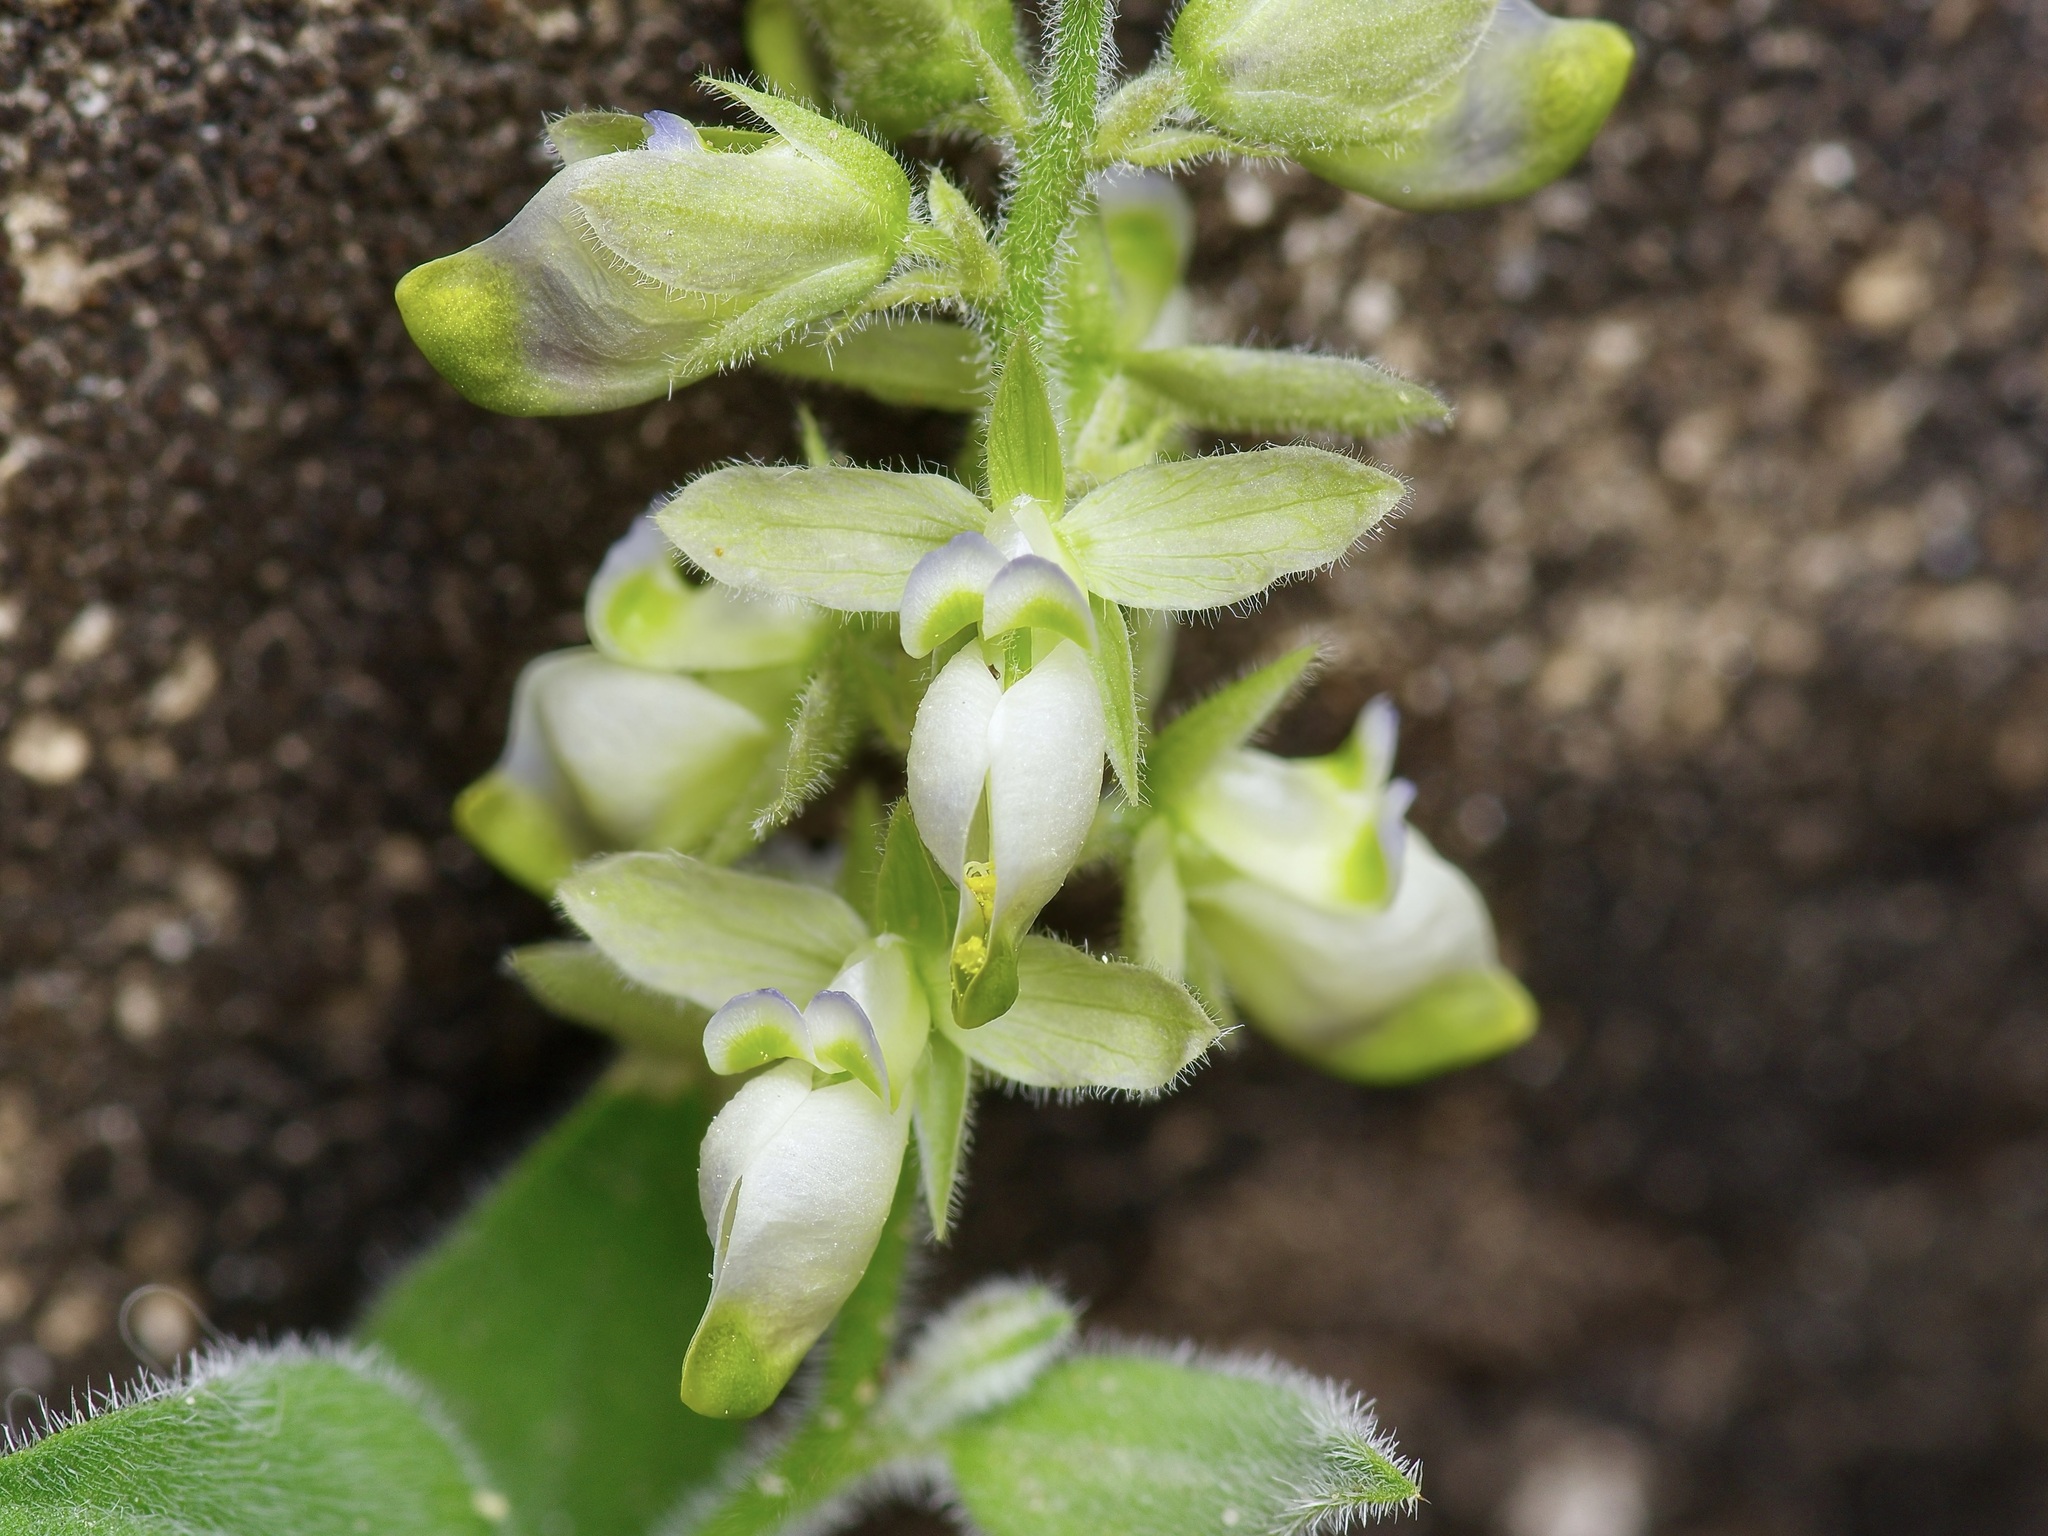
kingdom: Plantae
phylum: Tracheophyta
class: Magnoliopsida
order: Fabales
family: Polygalaceae
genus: Hebecarpa
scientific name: Hebecarpa ovatifolia
